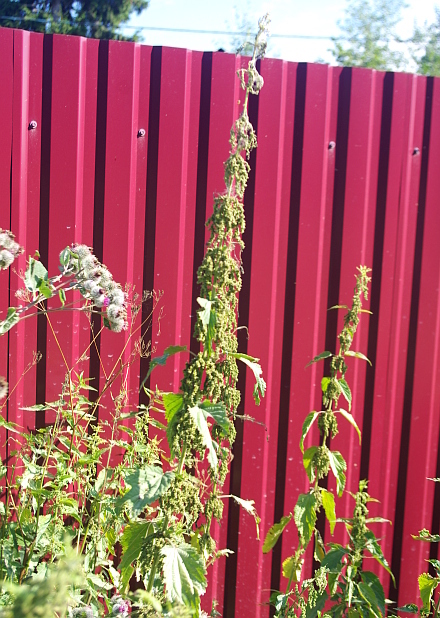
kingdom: Plantae
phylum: Tracheophyta
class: Magnoliopsida
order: Rosales
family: Urticaceae
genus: Urtica
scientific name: Urtica dioica
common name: Common nettle
